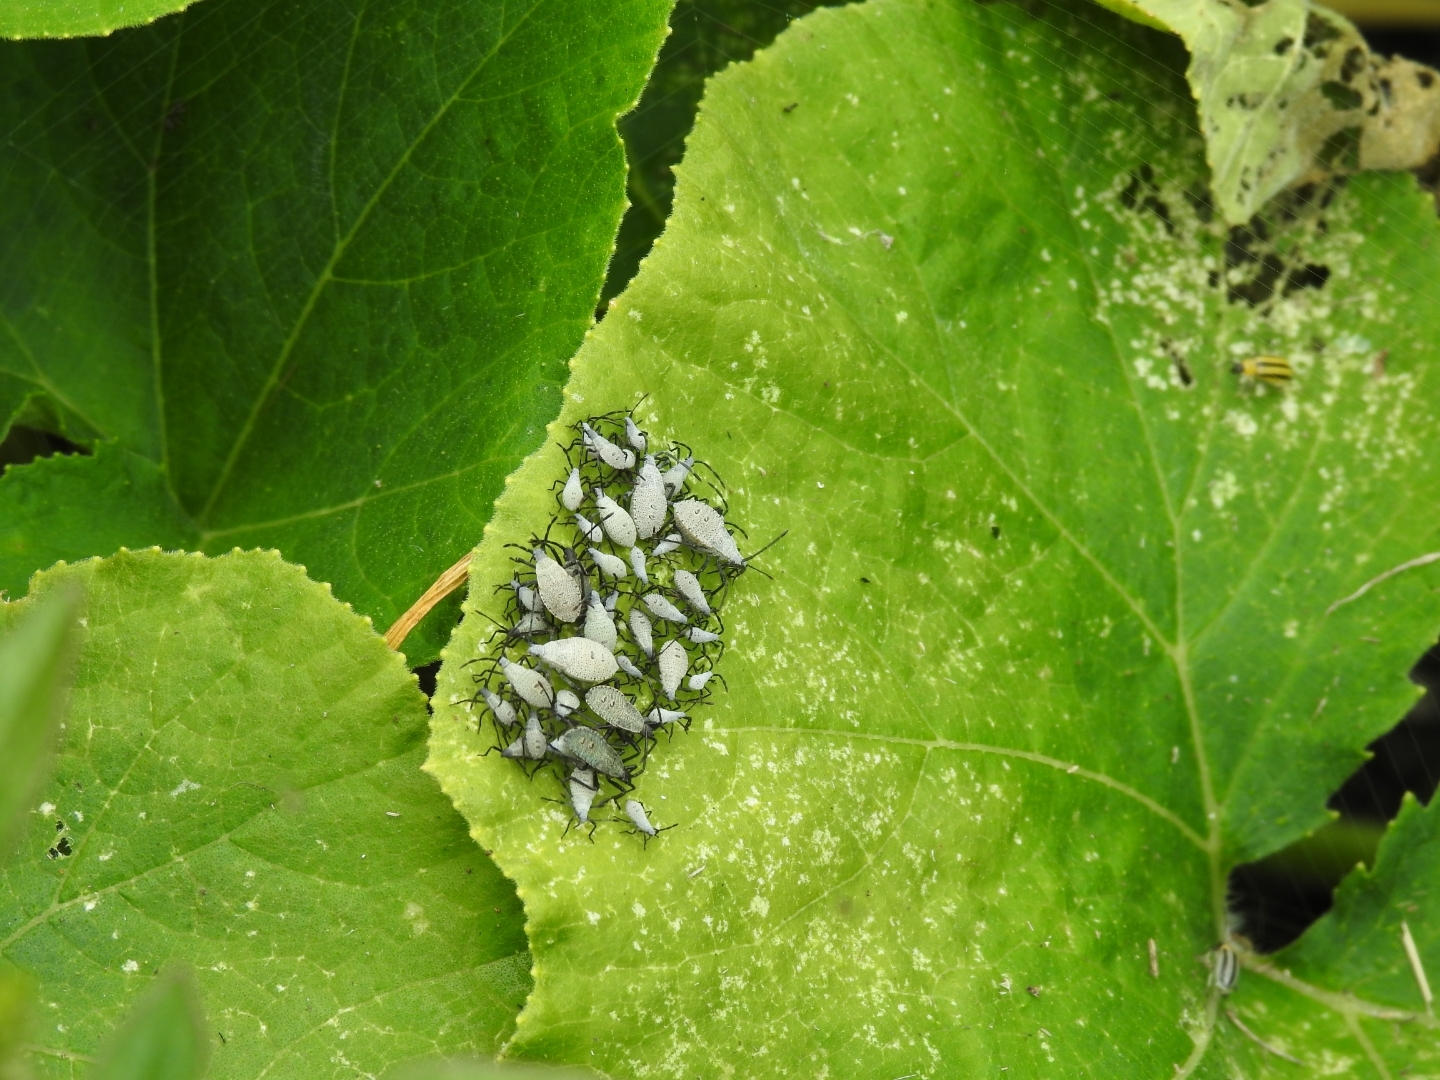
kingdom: Animalia
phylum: Arthropoda
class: Insecta
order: Hemiptera
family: Coreidae
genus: Anasa
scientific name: Anasa tristis
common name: Squash bug
